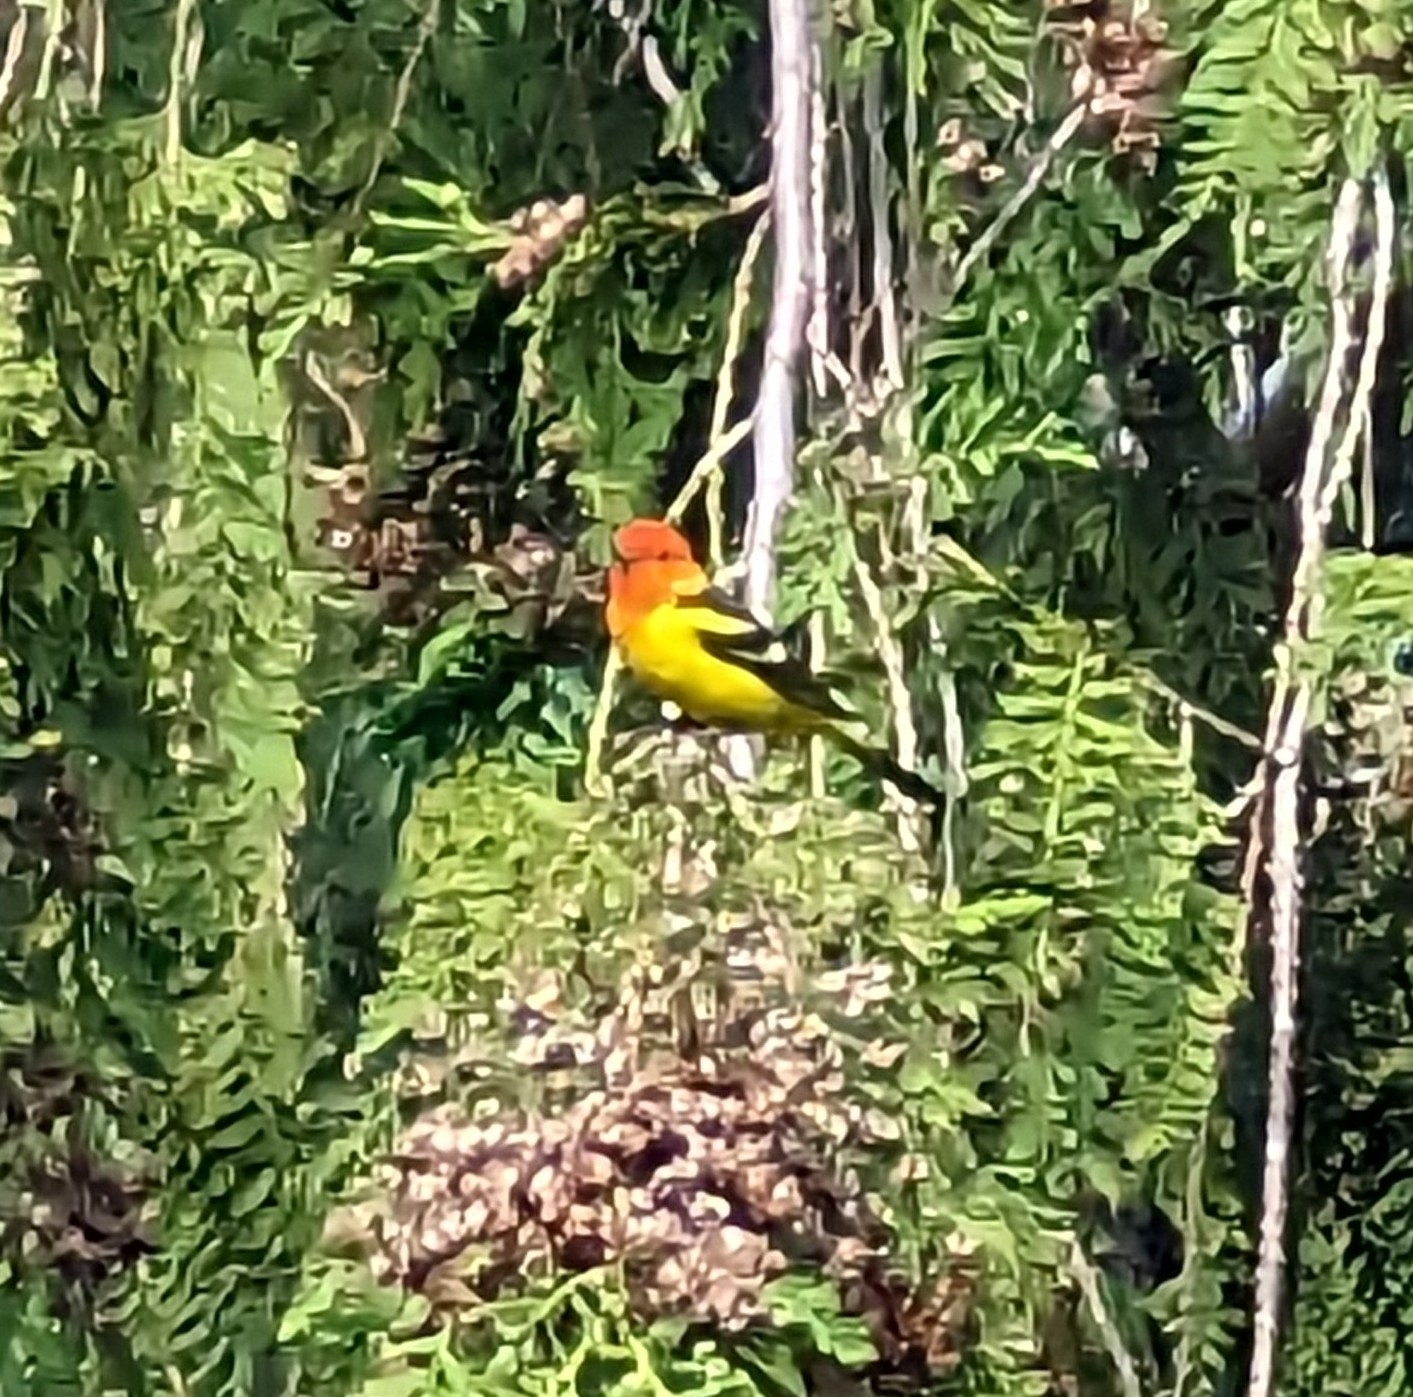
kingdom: Animalia
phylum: Chordata
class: Aves
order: Passeriformes
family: Cardinalidae
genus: Piranga
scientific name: Piranga ludoviciana
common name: Western tanager
